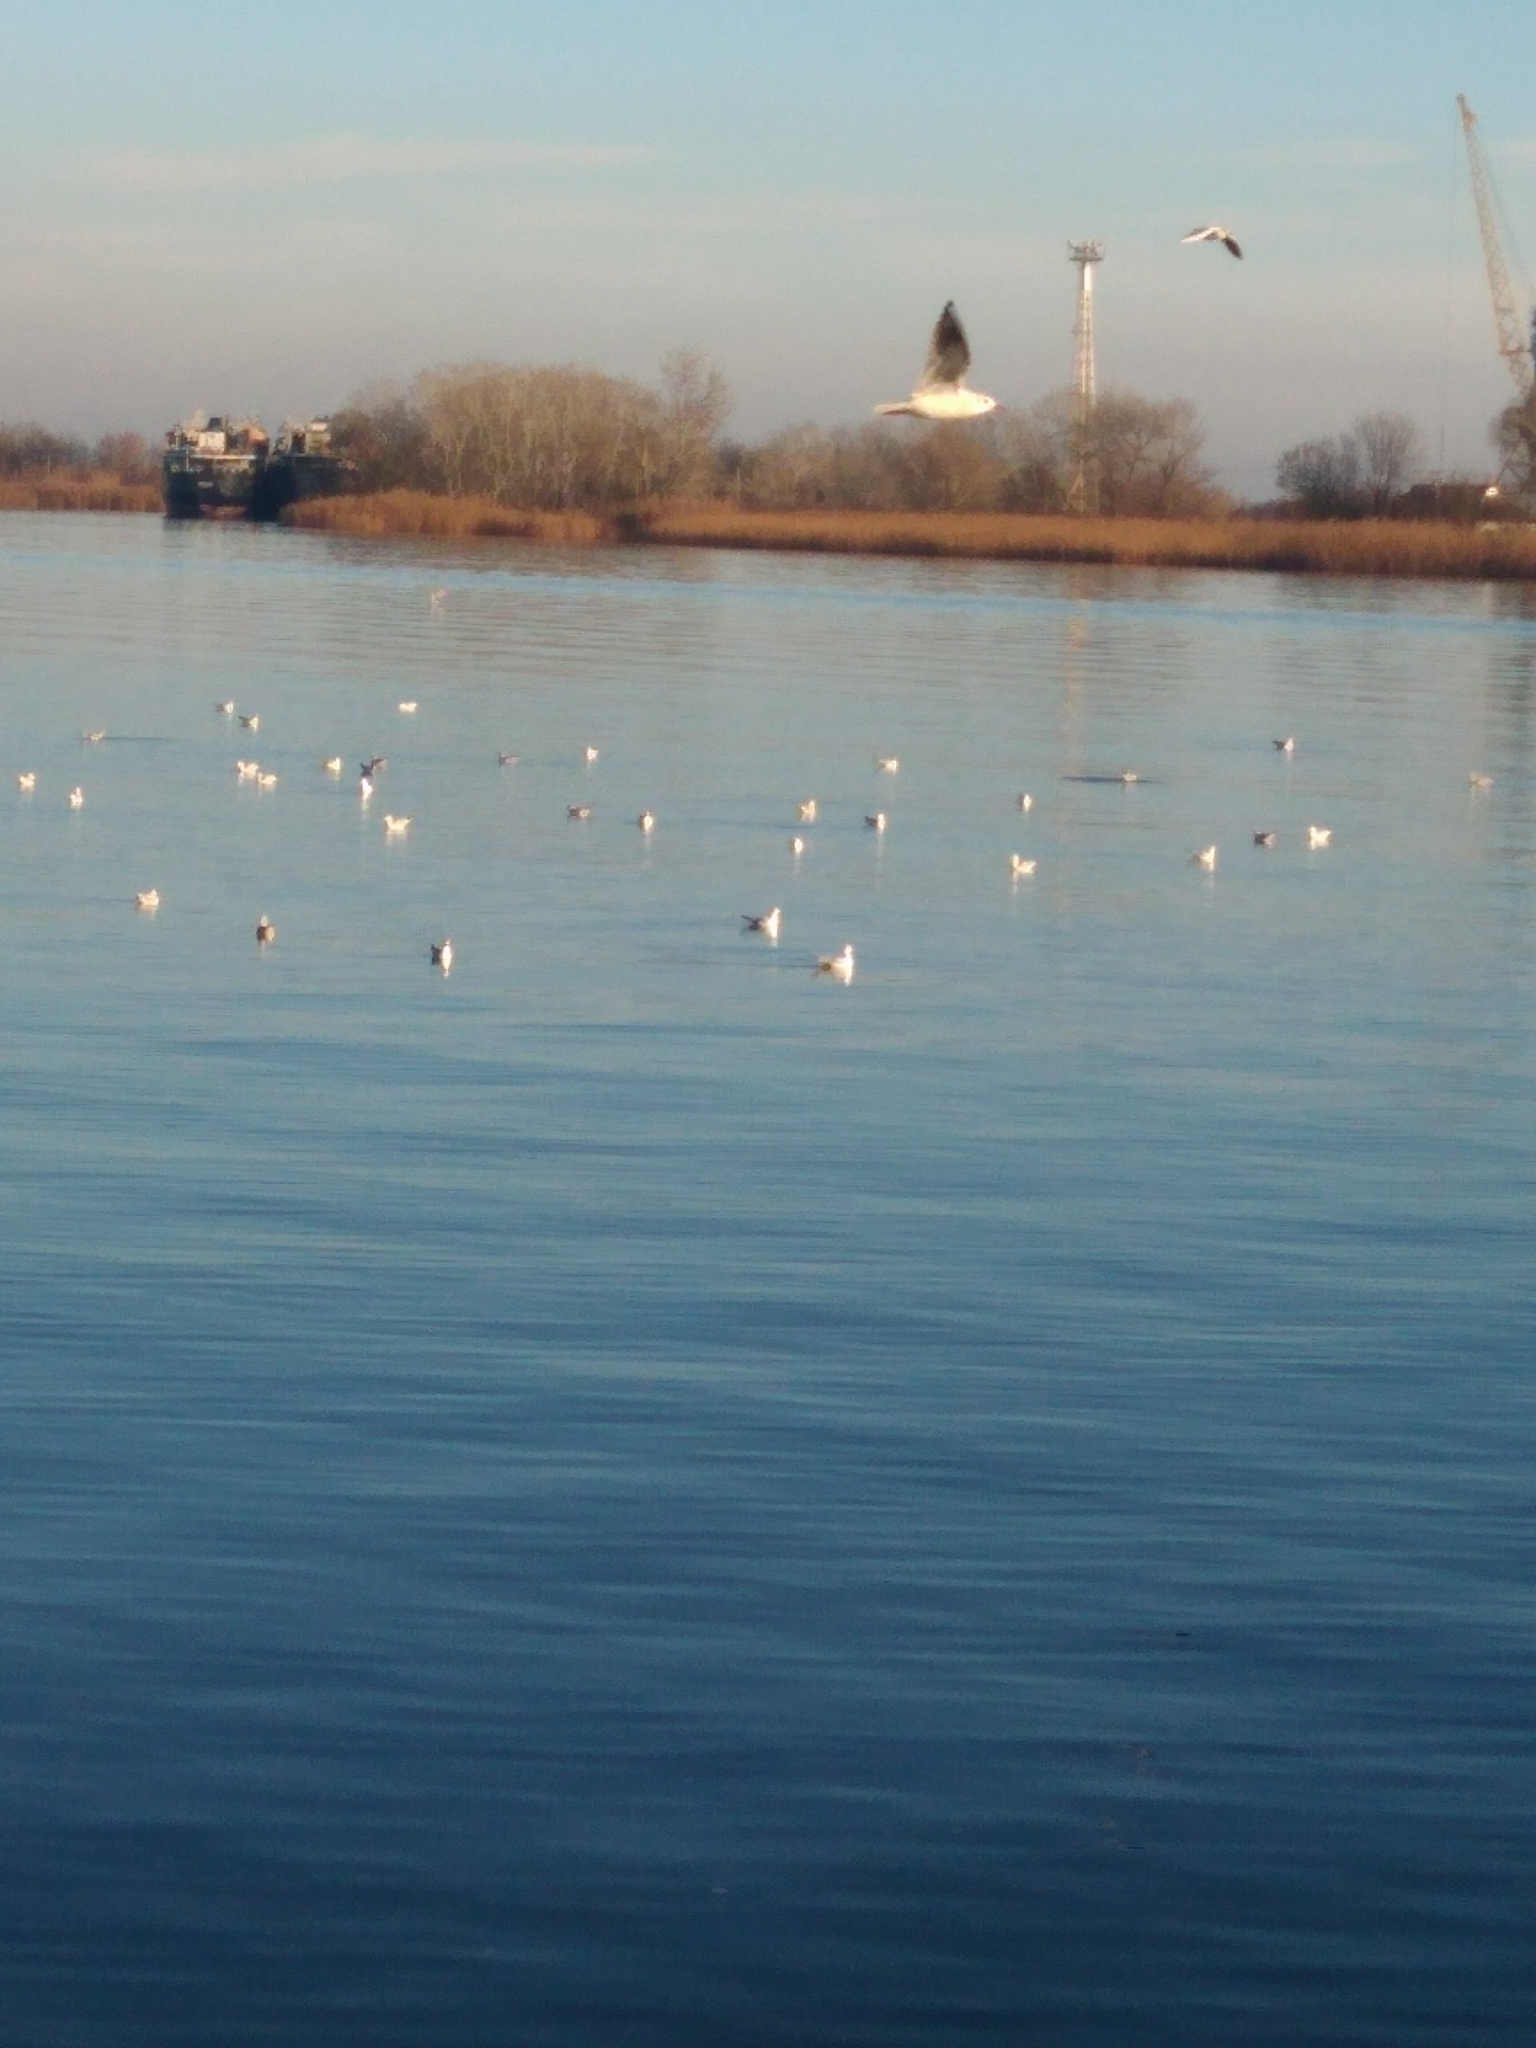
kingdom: Animalia
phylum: Chordata
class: Aves
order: Charadriiformes
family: Laridae
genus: Chroicocephalus
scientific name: Chroicocephalus ridibundus
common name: Black-headed gull
